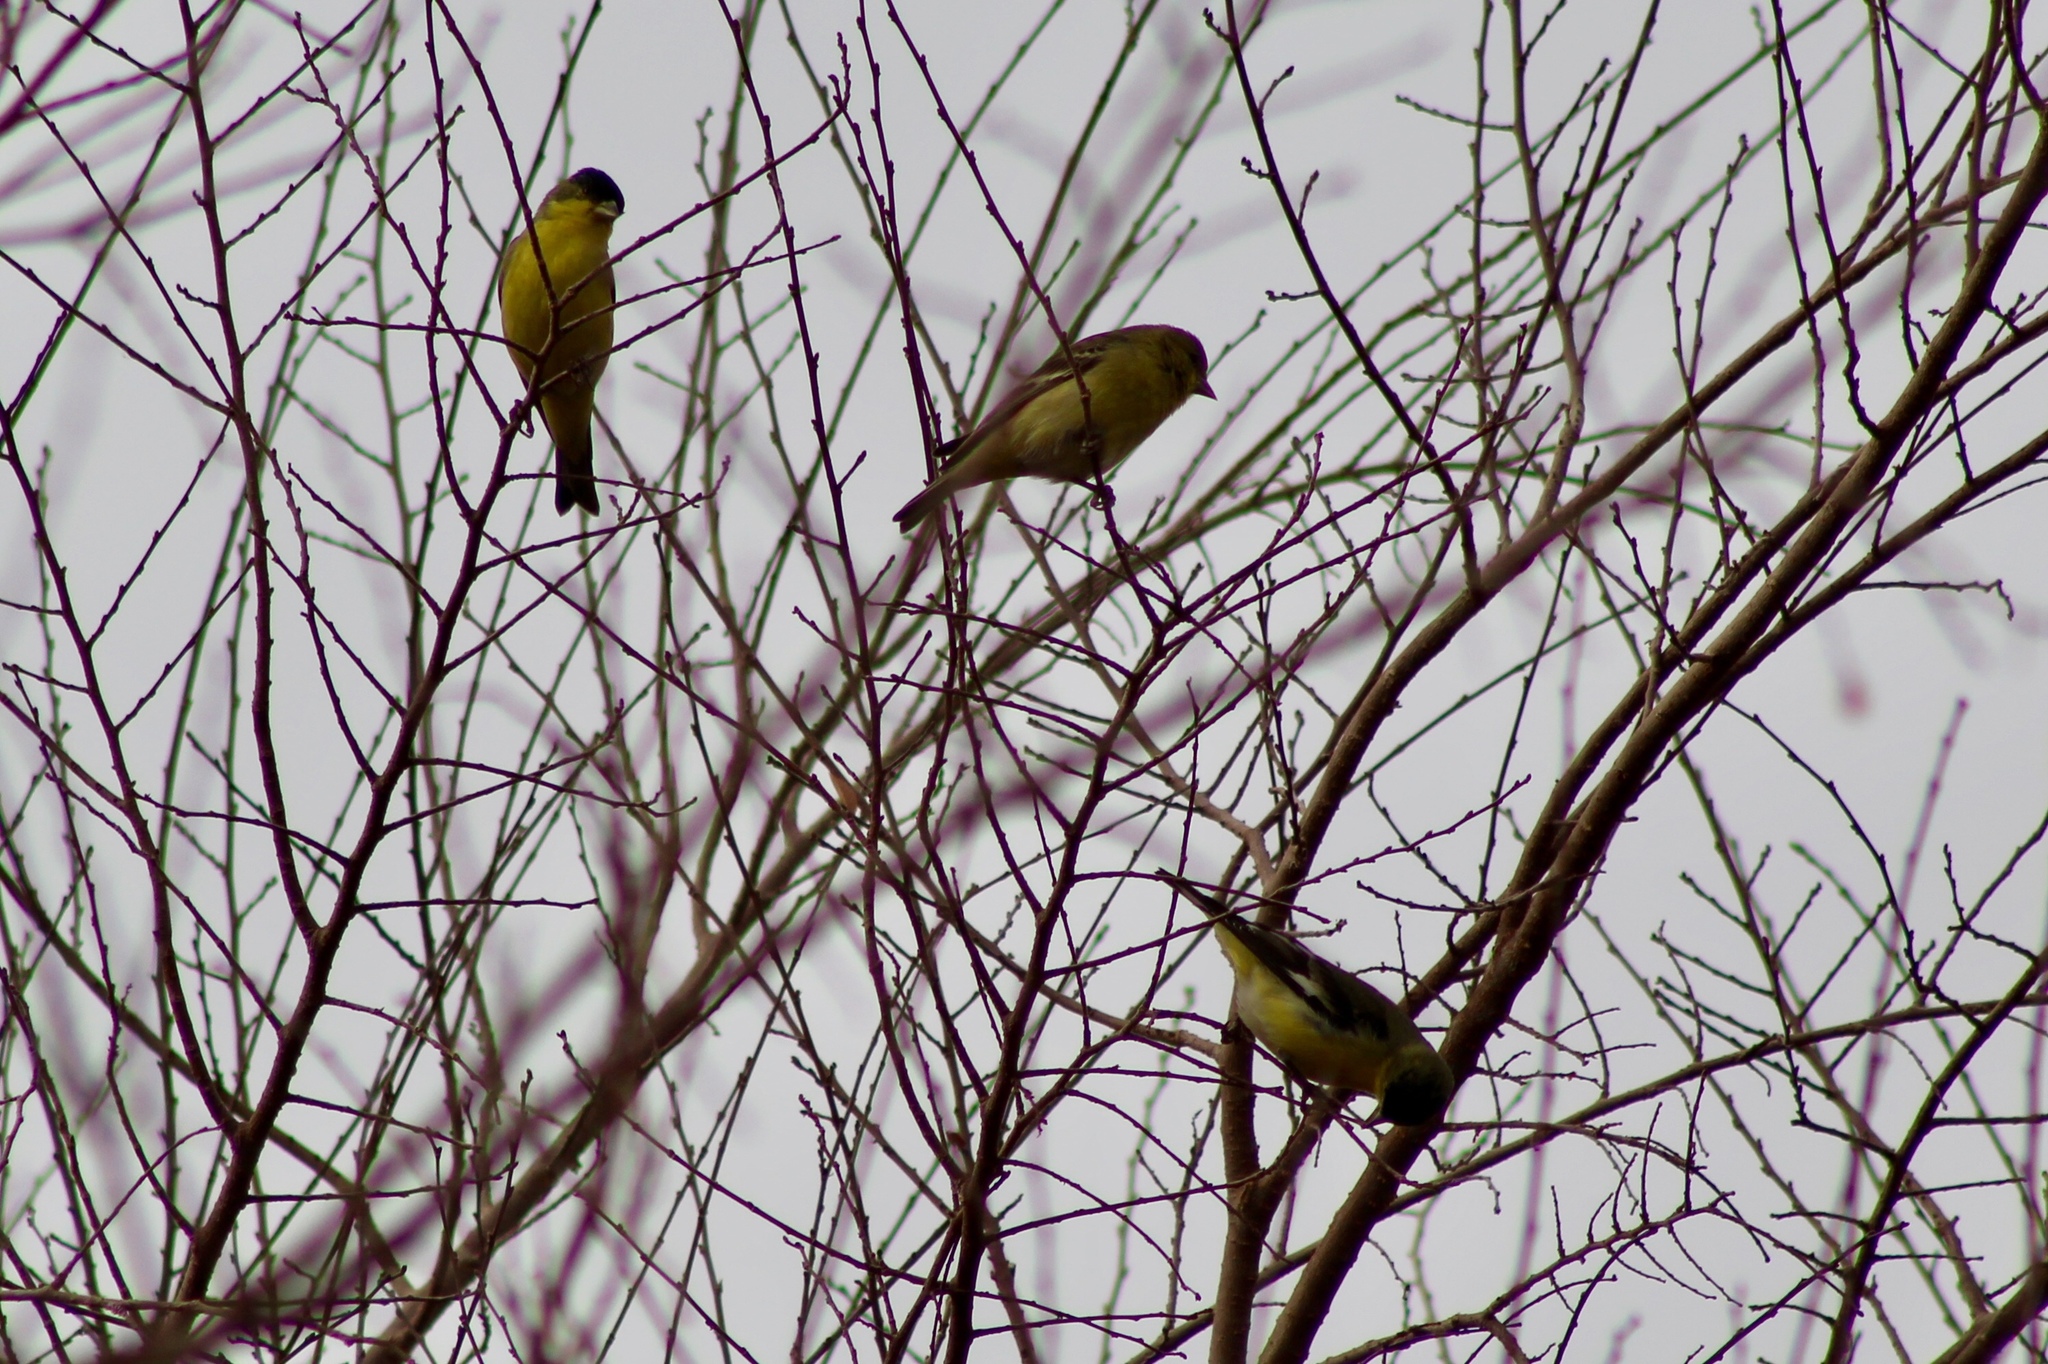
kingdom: Animalia
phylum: Chordata
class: Aves
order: Passeriformes
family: Fringillidae
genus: Spinus
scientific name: Spinus psaltria
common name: Lesser goldfinch
